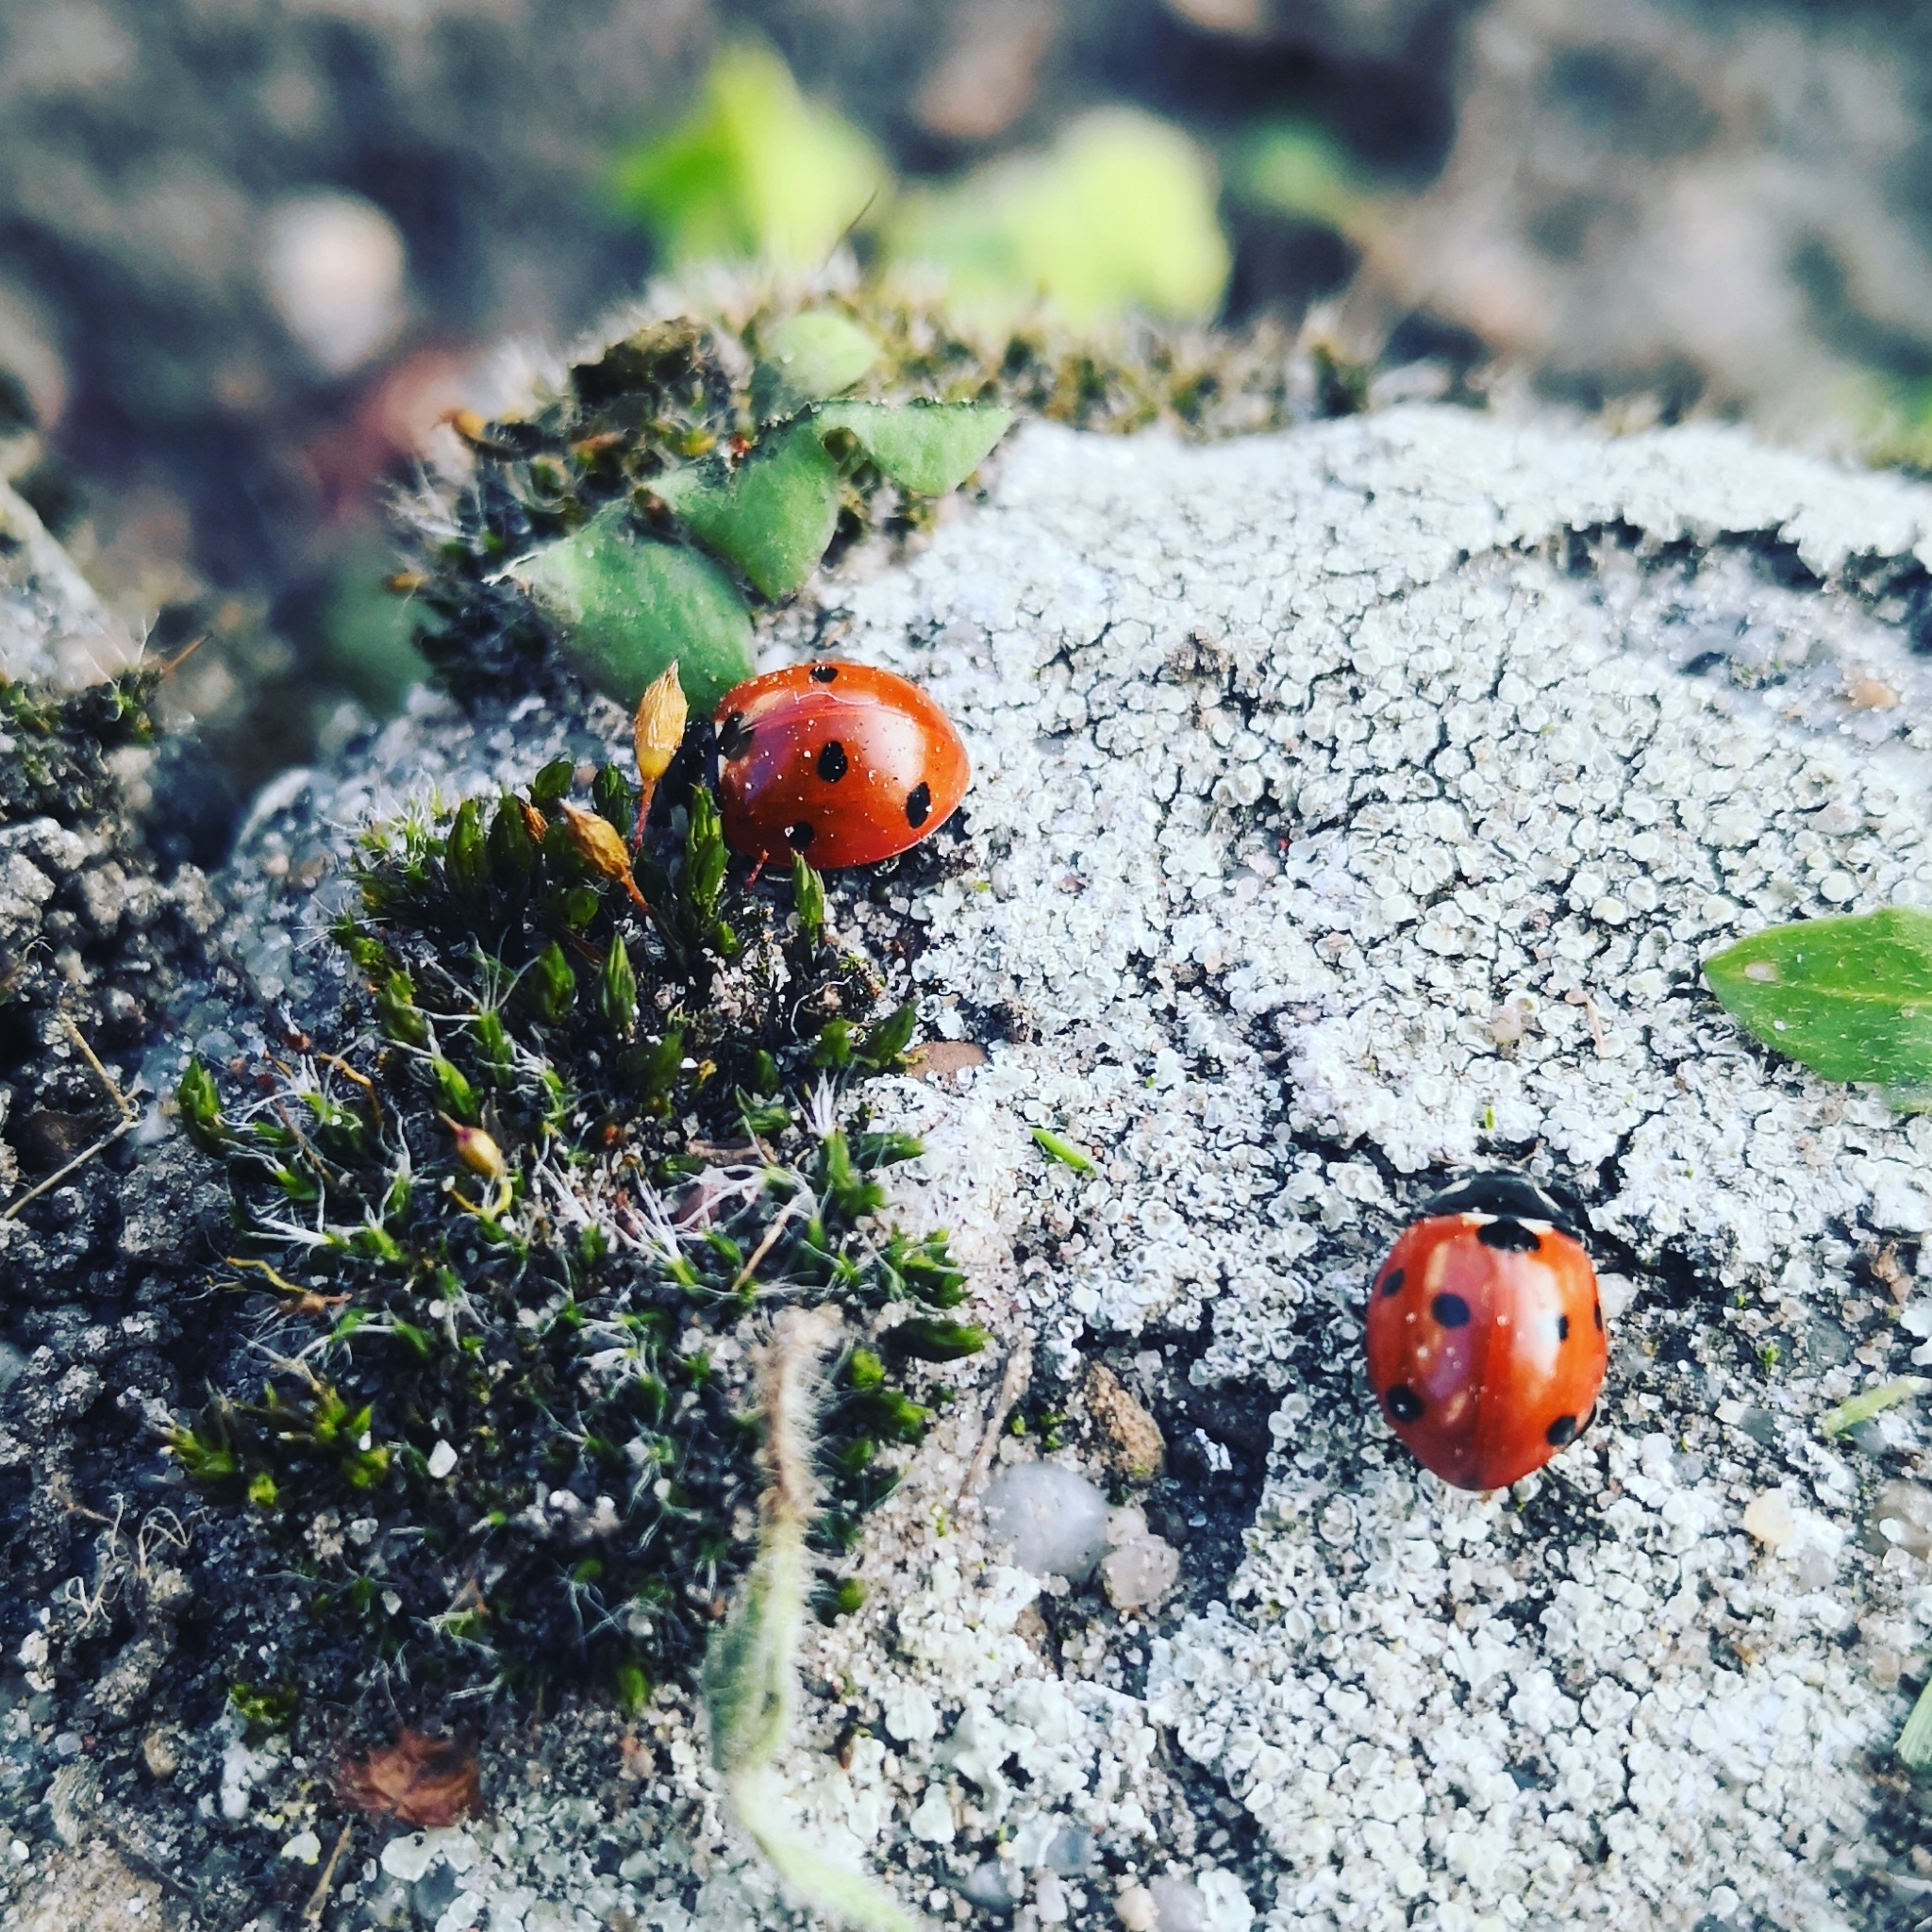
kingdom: Animalia
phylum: Arthropoda
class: Insecta
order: Coleoptera
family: Coccinellidae
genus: Coccinella
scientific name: Coccinella septempunctata
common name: Sevenspotted lady beetle
